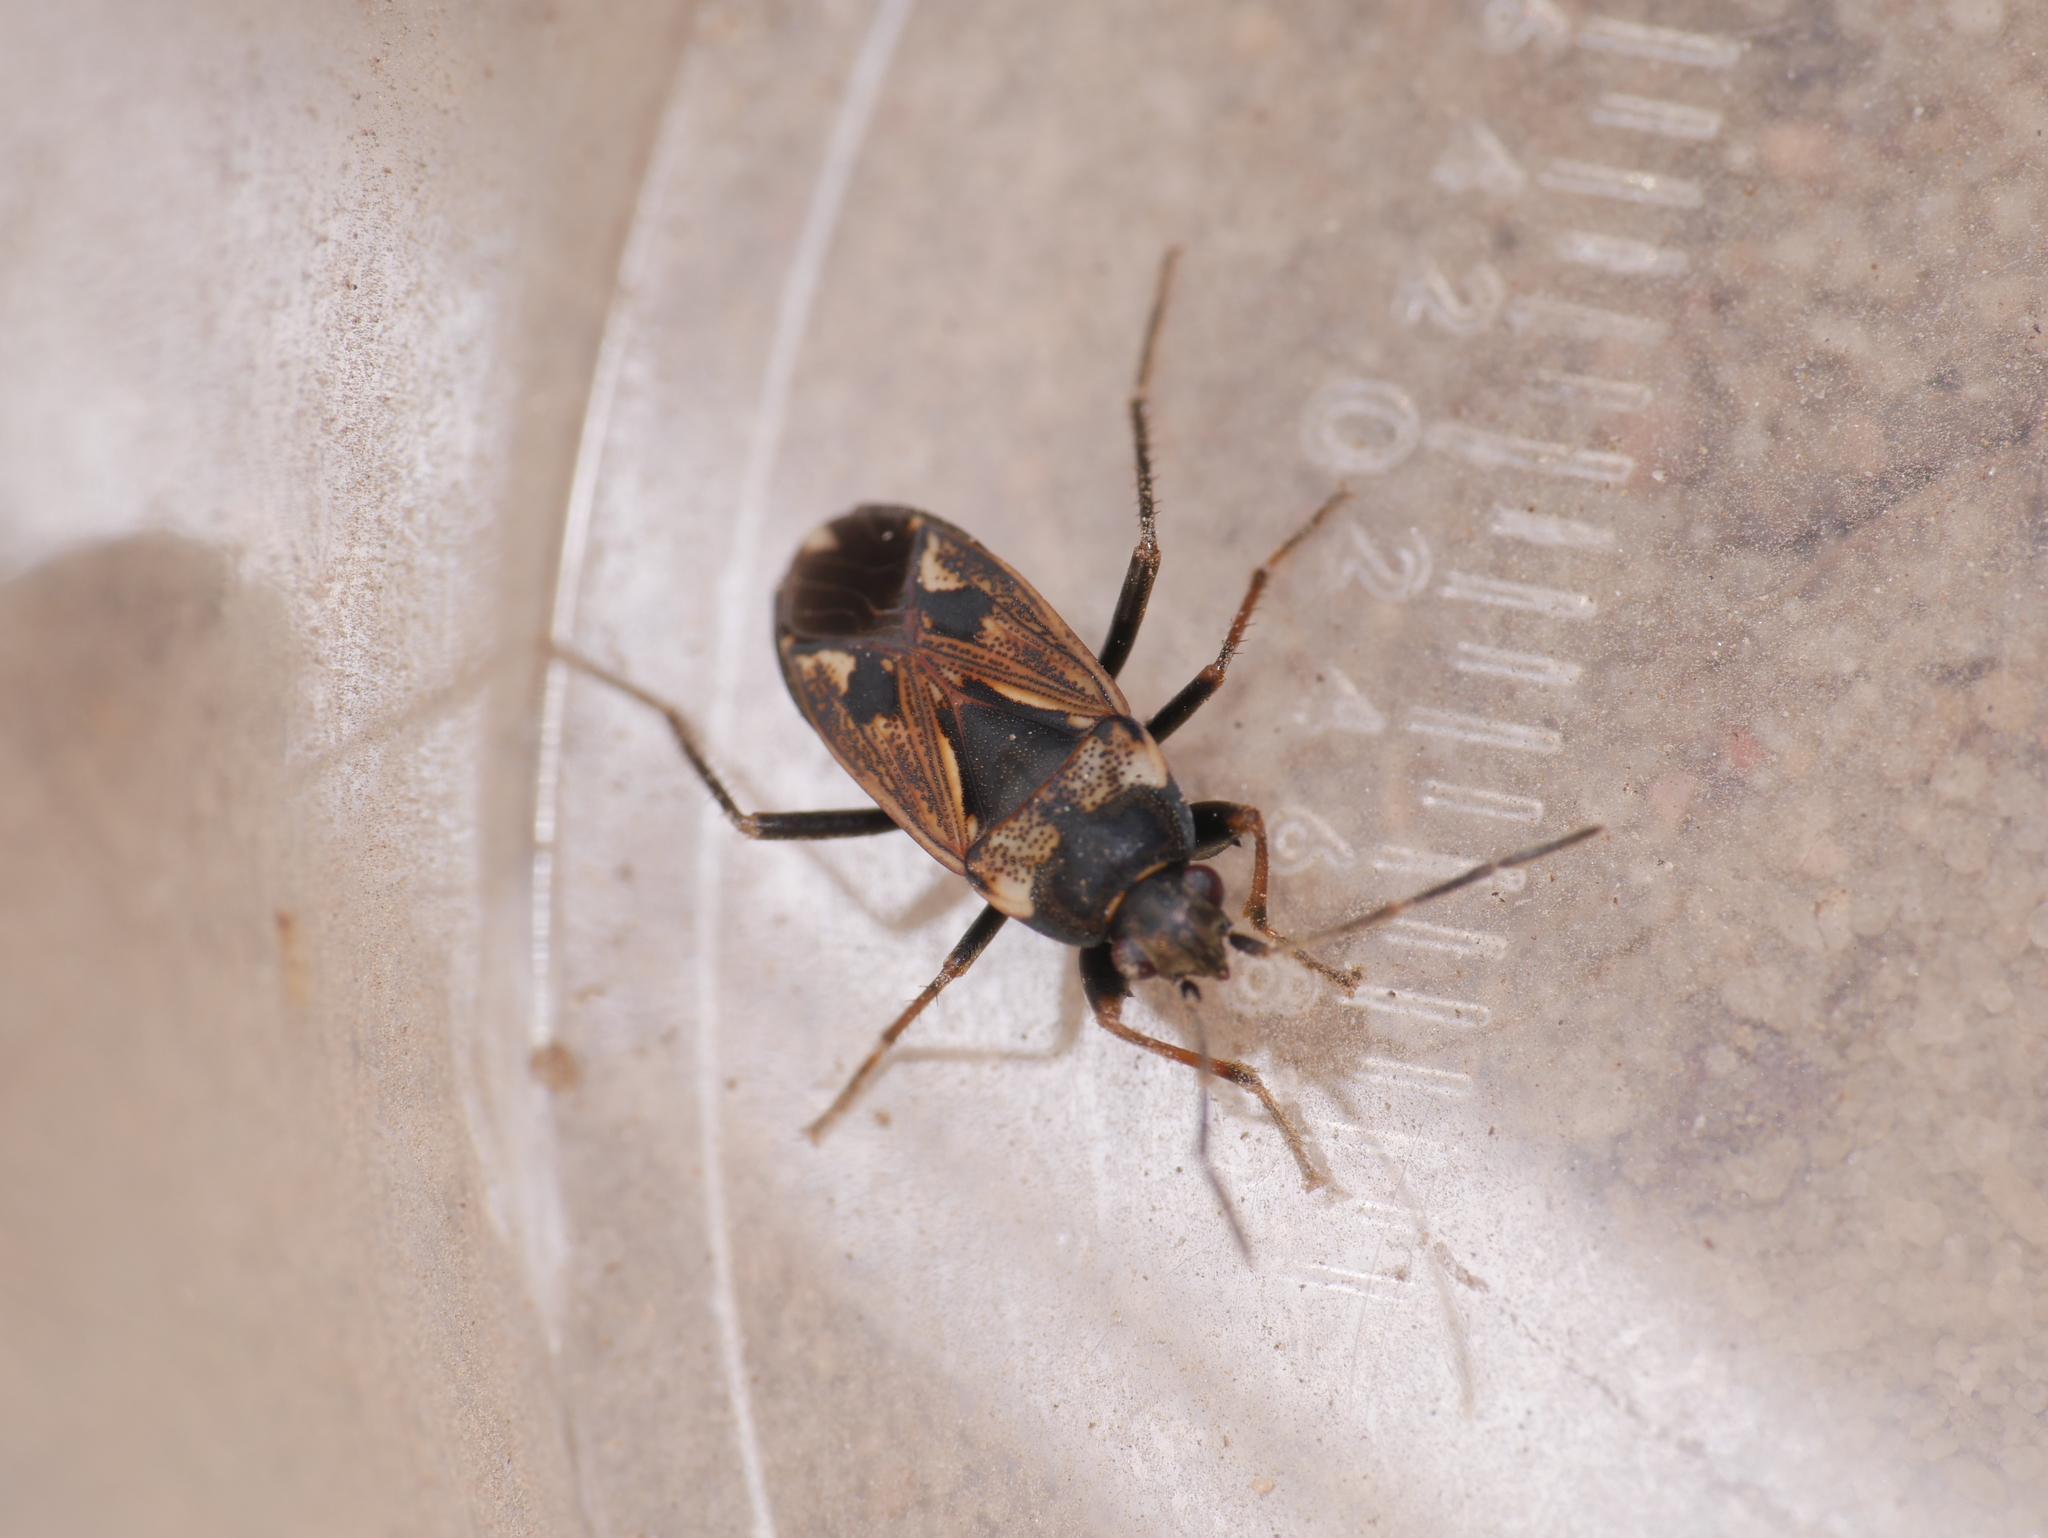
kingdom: Animalia
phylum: Arthropoda
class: Insecta
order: Hemiptera
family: Rhyparochromidae
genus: Rhyparochromus
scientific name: Rhyparochromus vulgaris
